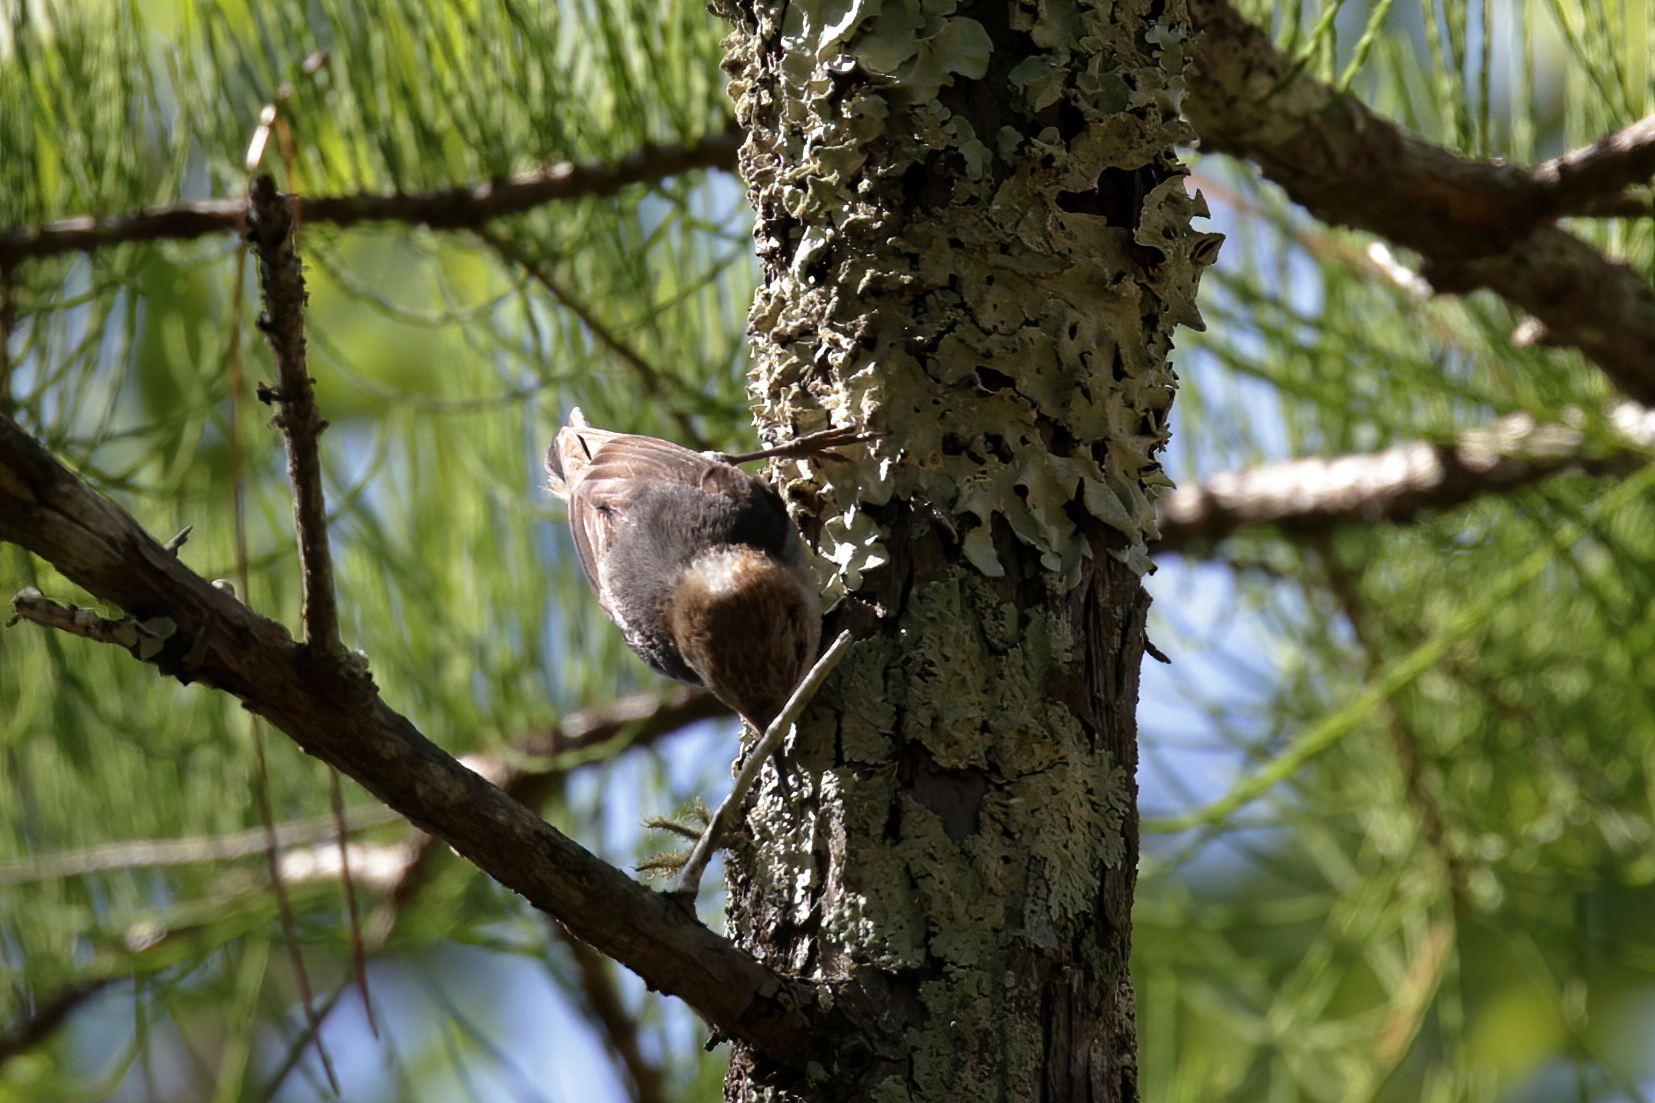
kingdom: Animalia
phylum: Chordata
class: Aves
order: Passeriformes
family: Sittidae
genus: Sitta
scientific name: Sitta pusilla
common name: Brown-headed nuthatch
